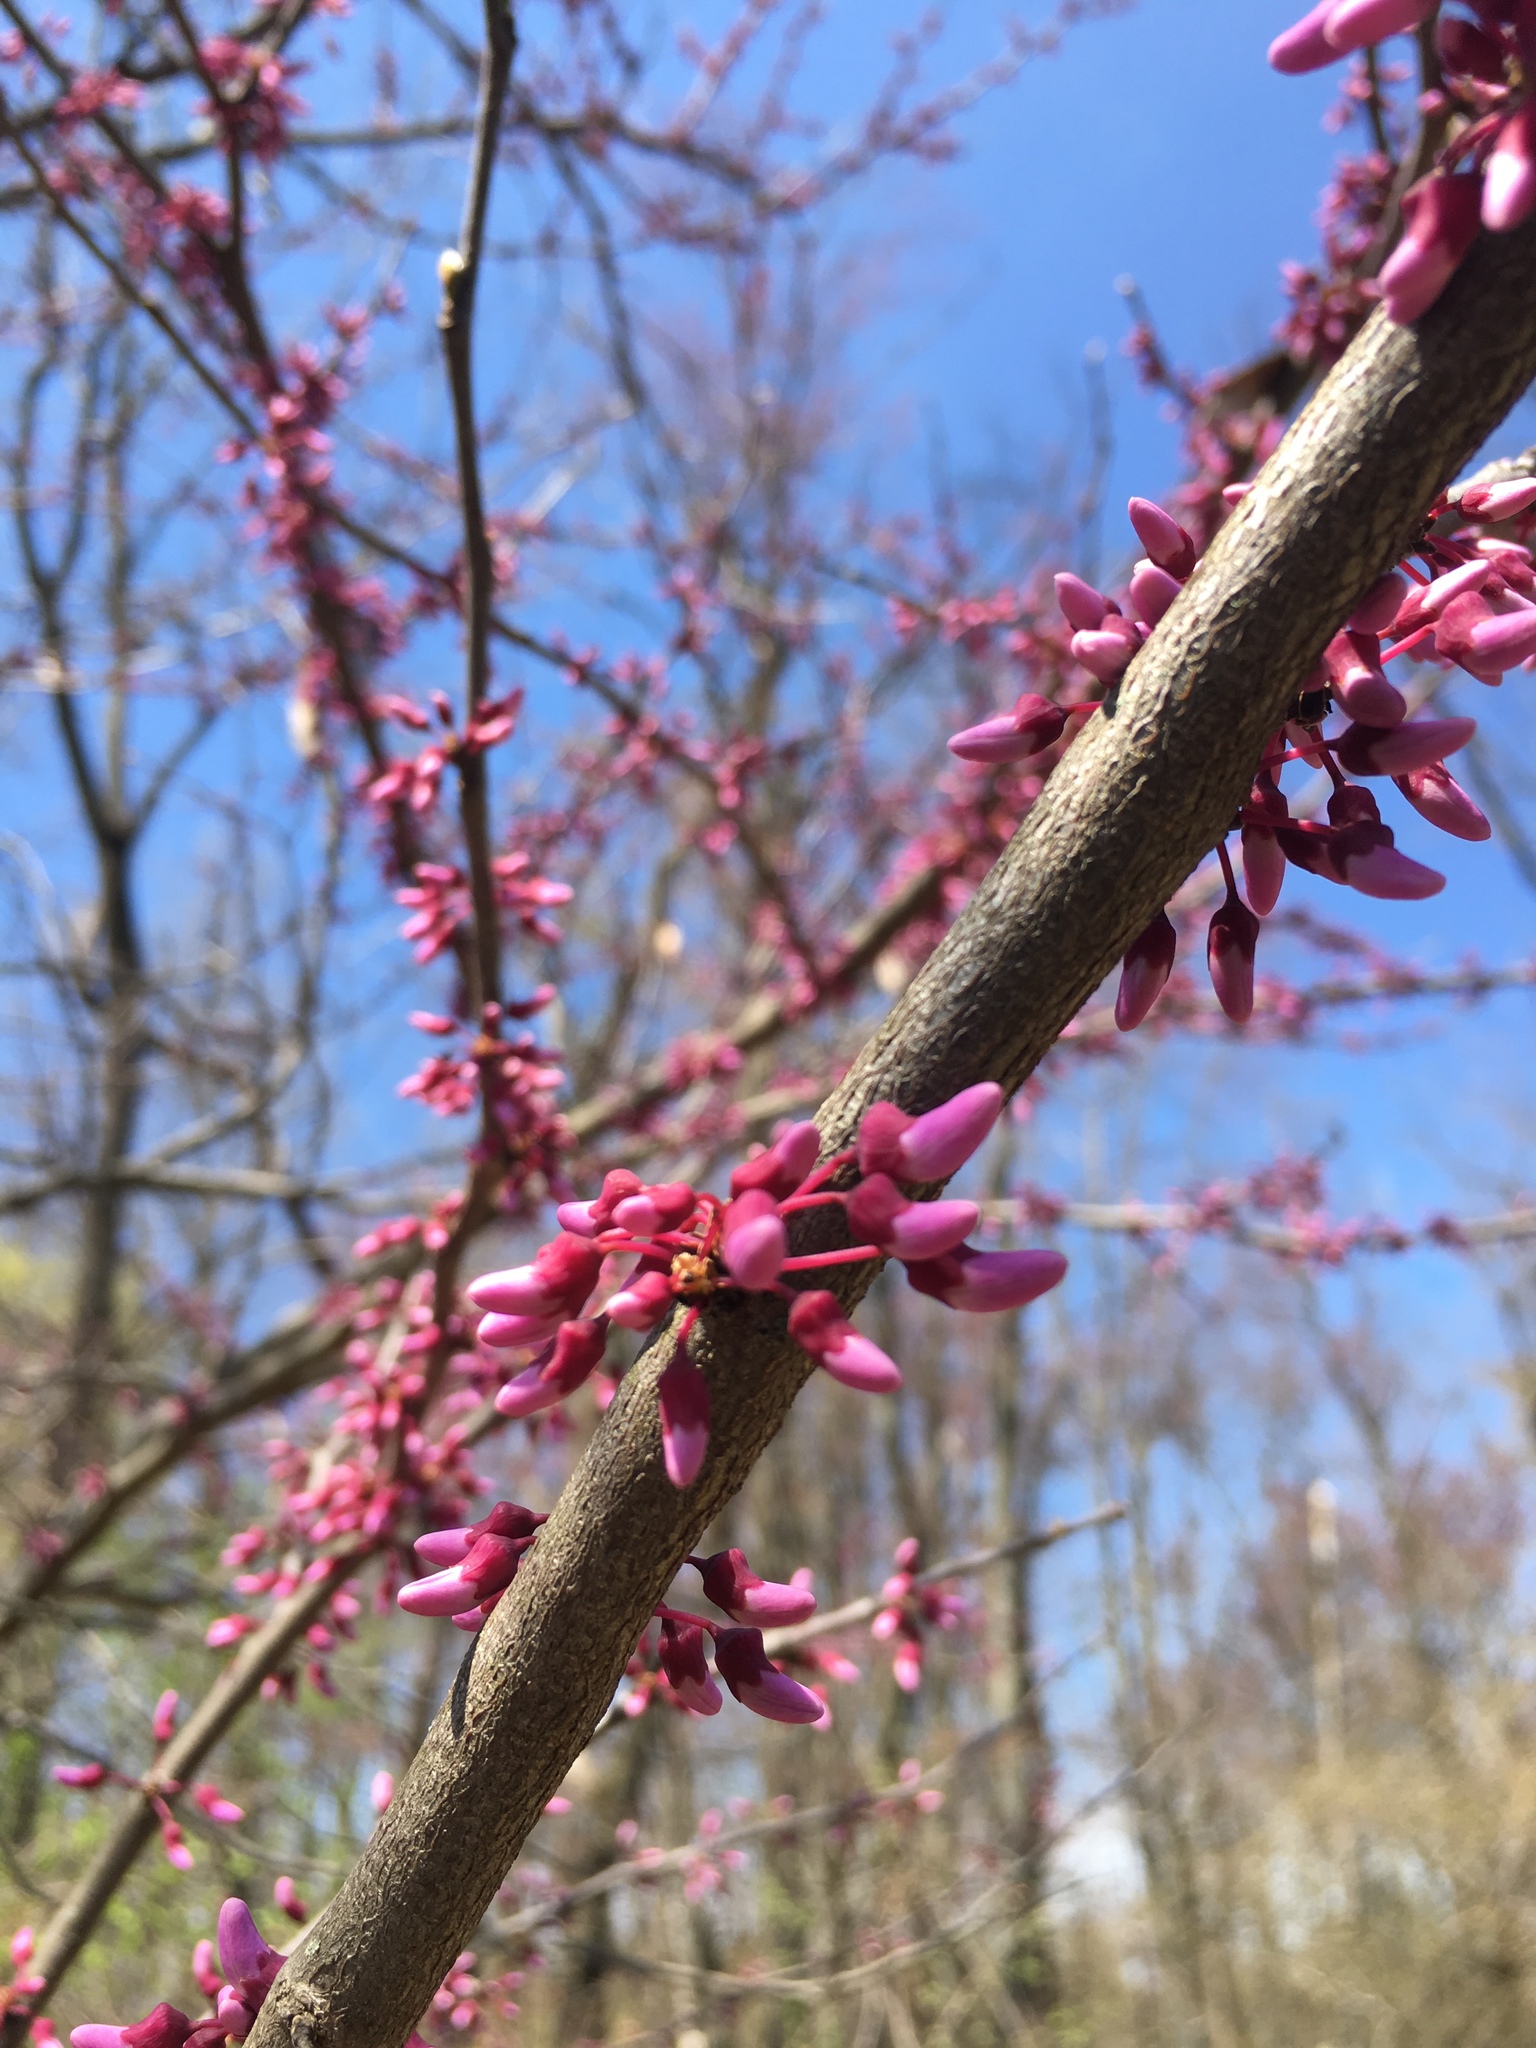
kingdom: Plantae
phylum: Tracheophyta
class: Magnoliopsida
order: Fabales
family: Fabaceae
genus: Cercis
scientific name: Cercis canadensis
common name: Eastern redbud
